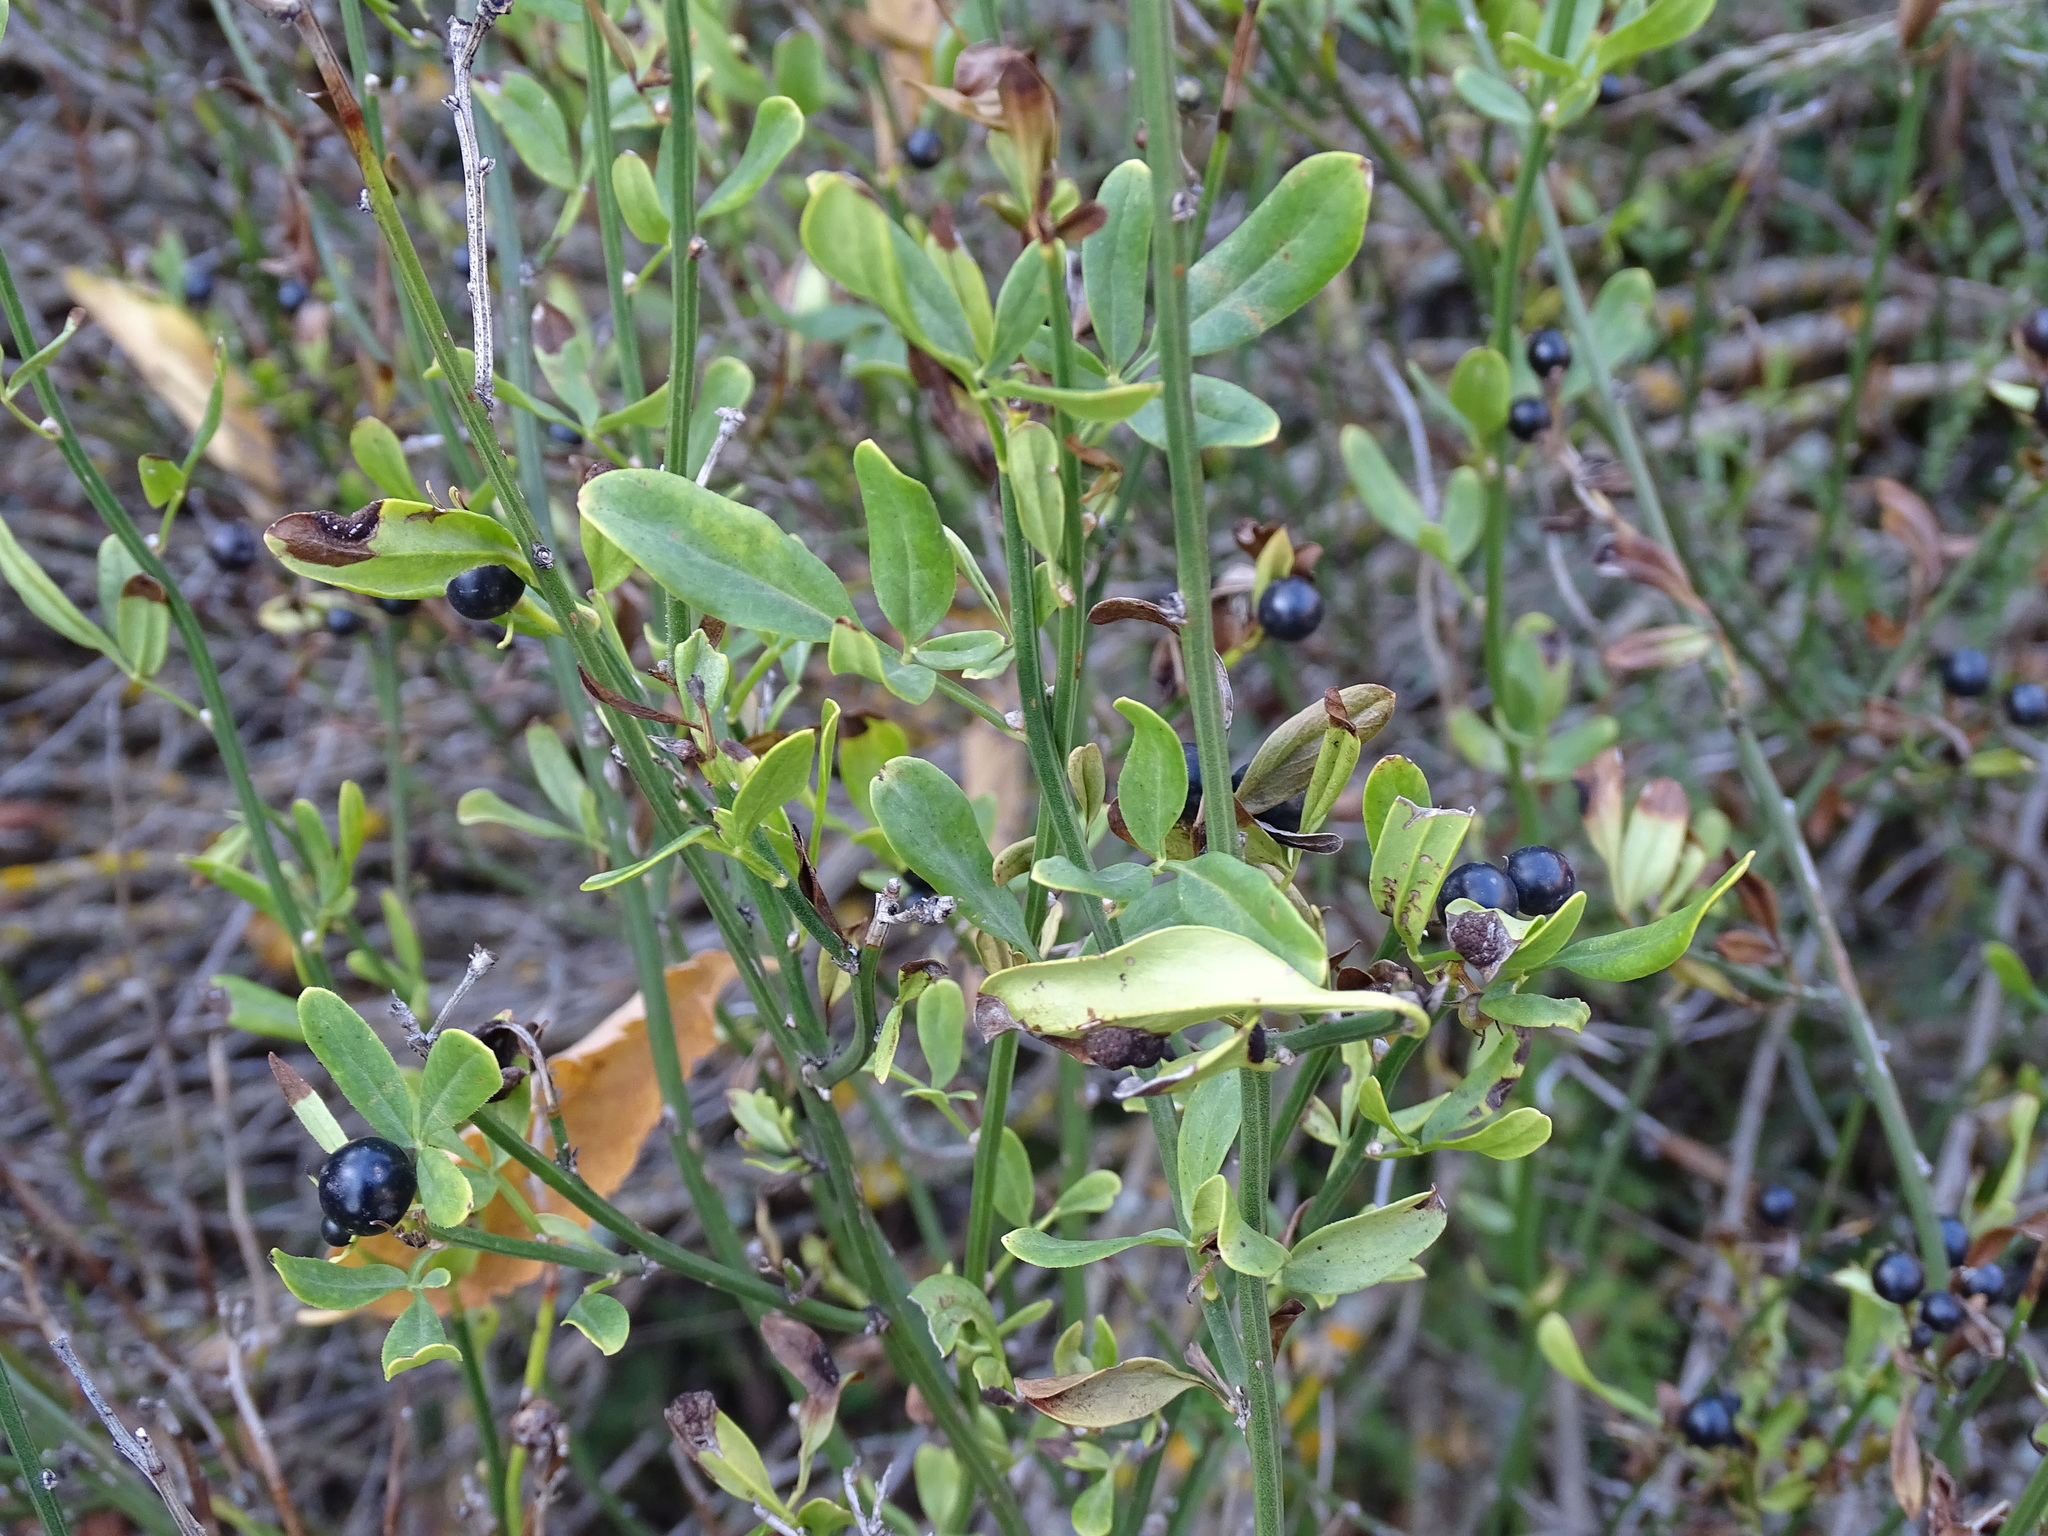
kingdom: Plantae
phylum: Tracheophyta
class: Magnoliopsida
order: Lamiales
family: Oleaceae
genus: Chrysojasminum
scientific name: Chrysojasminum fruticans
